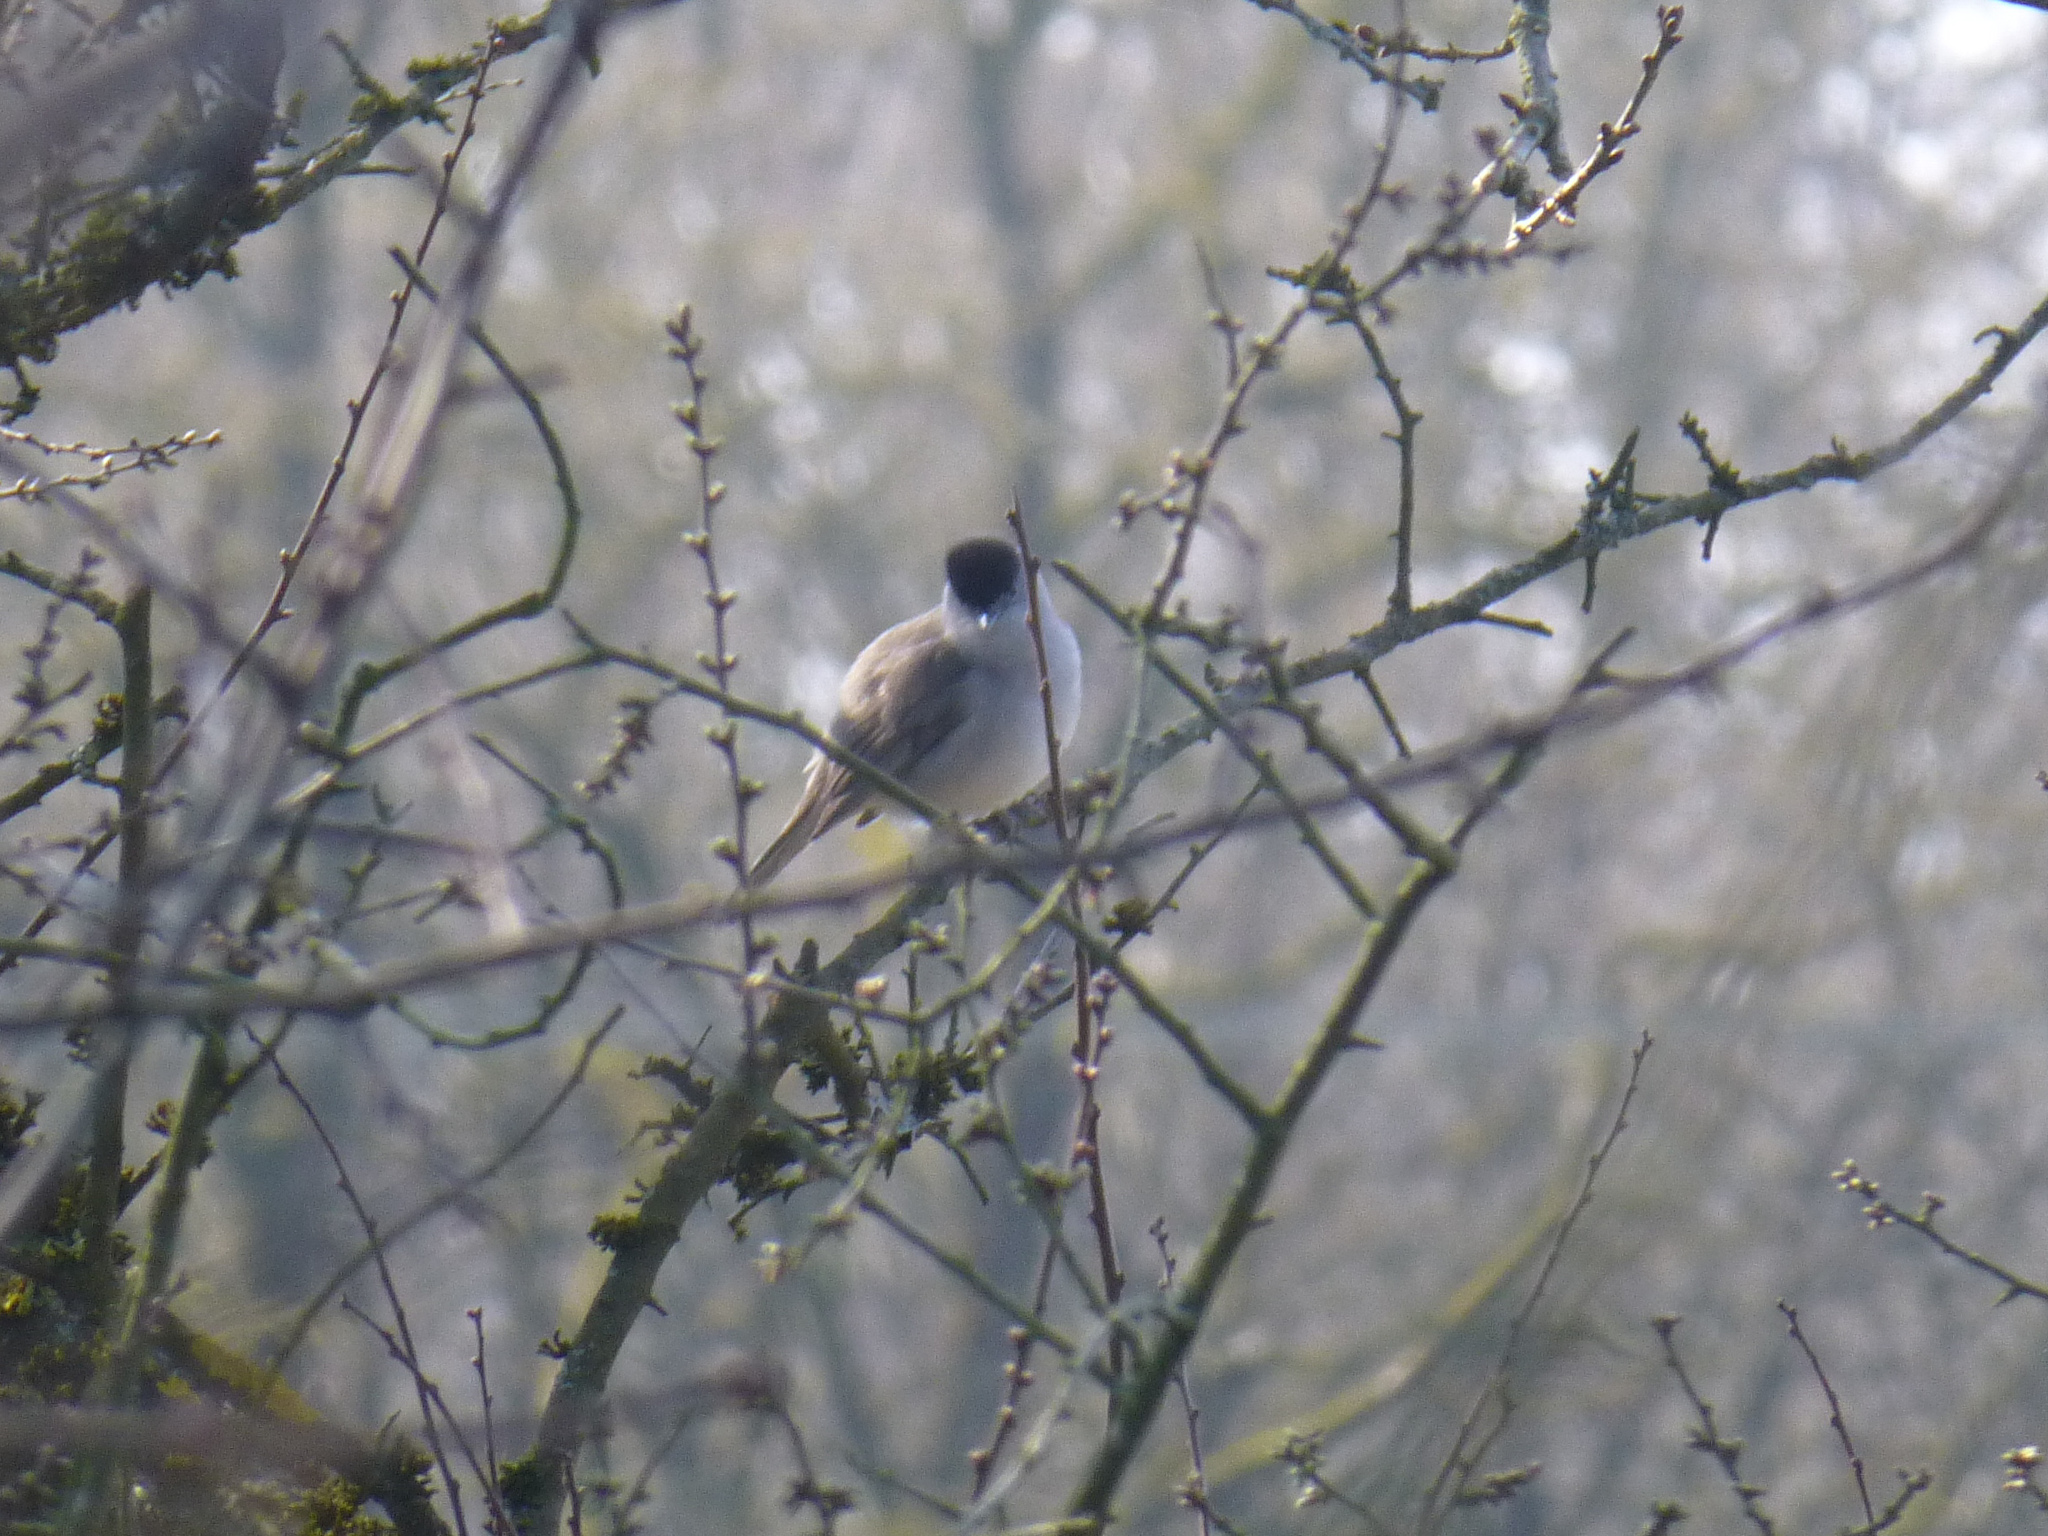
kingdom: Animalia
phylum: Chordata
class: Aves
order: Passeriformes
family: Sylviidae
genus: Sylvia
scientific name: Sylvia atricapilla
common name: Eurasian blackcap
